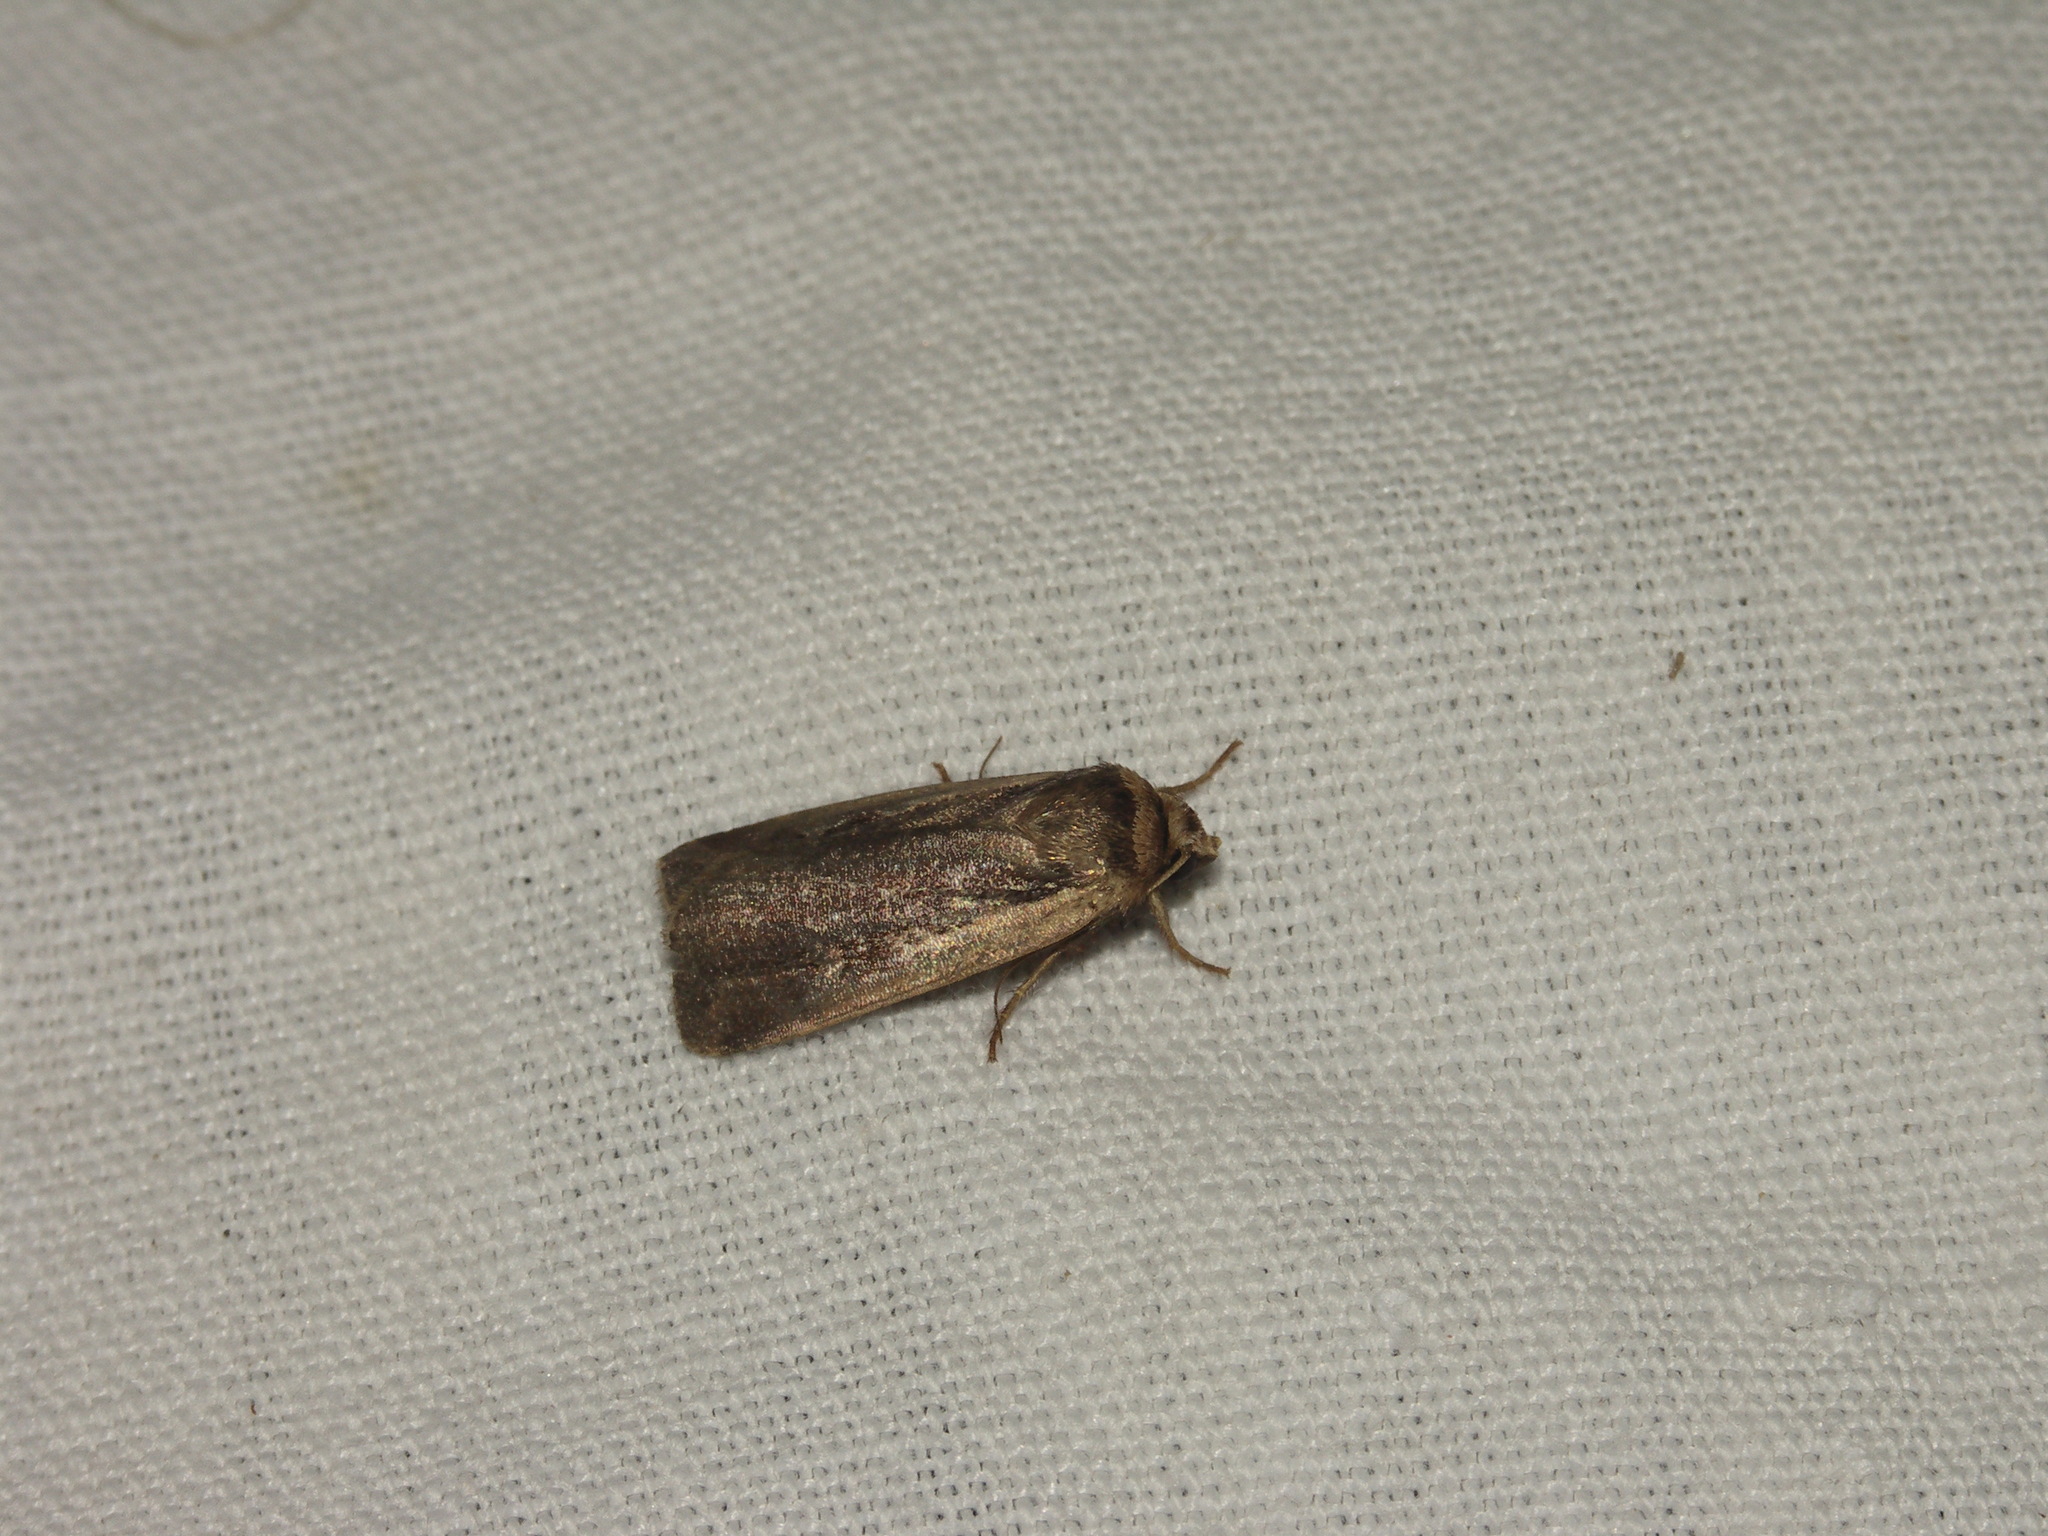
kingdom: Animalia
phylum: Arthropoda
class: Insecta
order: Lepidoptera
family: Noctuidae
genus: Ochropleura
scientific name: Ochropleura plecta
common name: Flame shoulder
